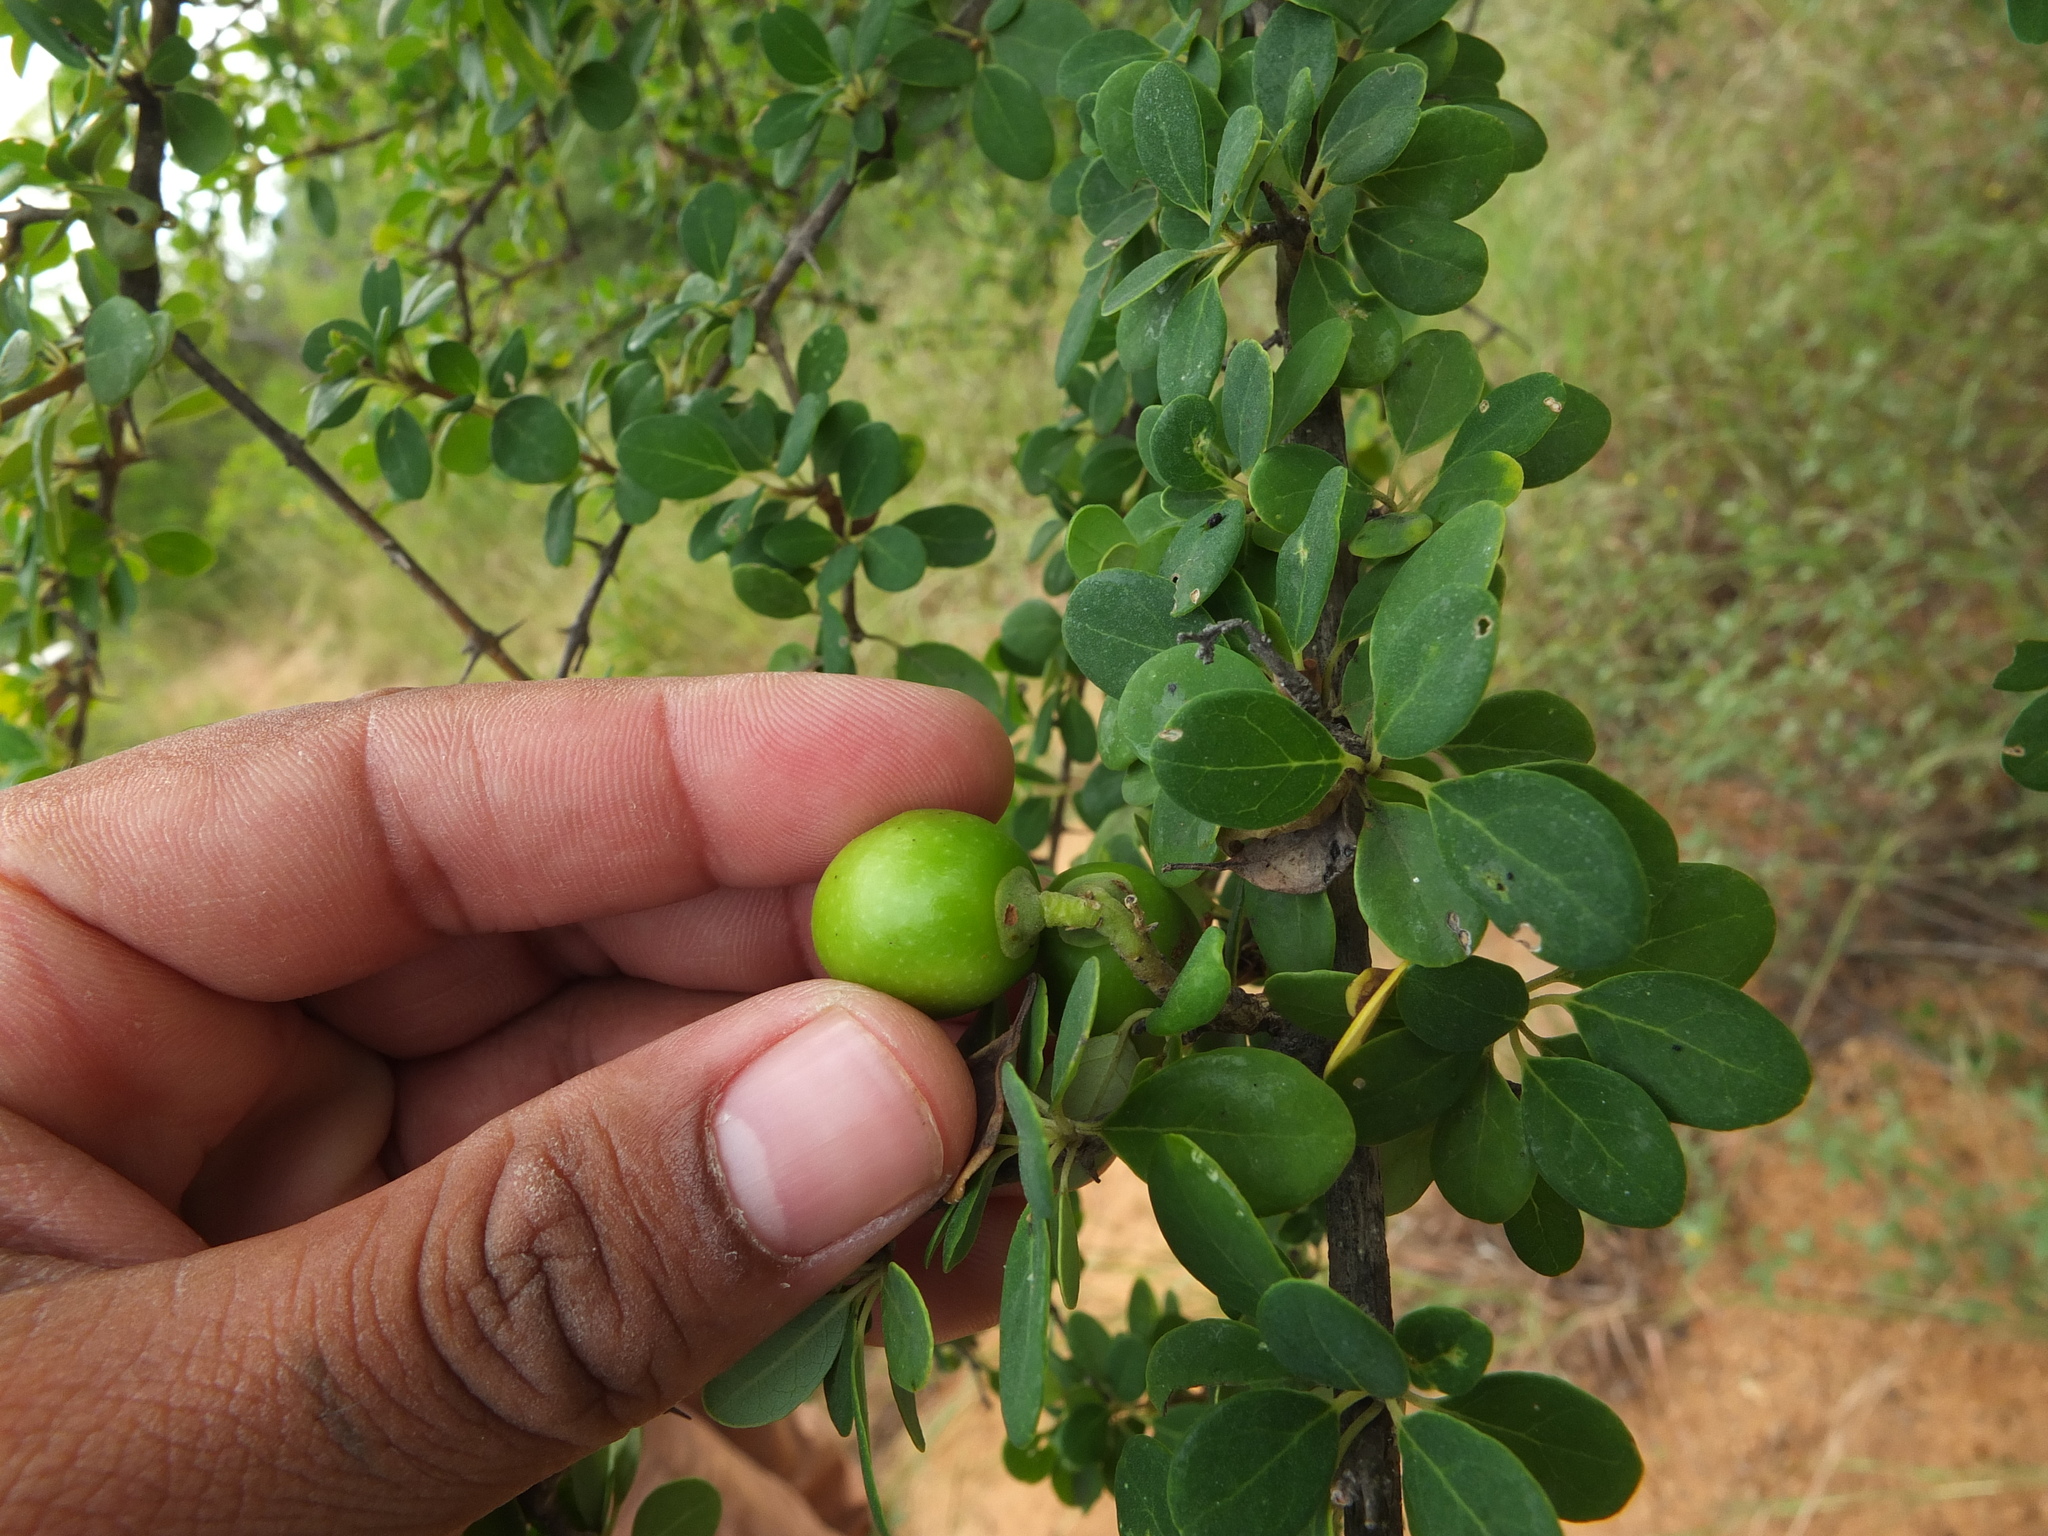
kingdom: Plantae
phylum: Tracheophyta
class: Magnoliopsida
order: Lamiales
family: Lamiaceae
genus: Gmelina
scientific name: Gmelina asiatica
